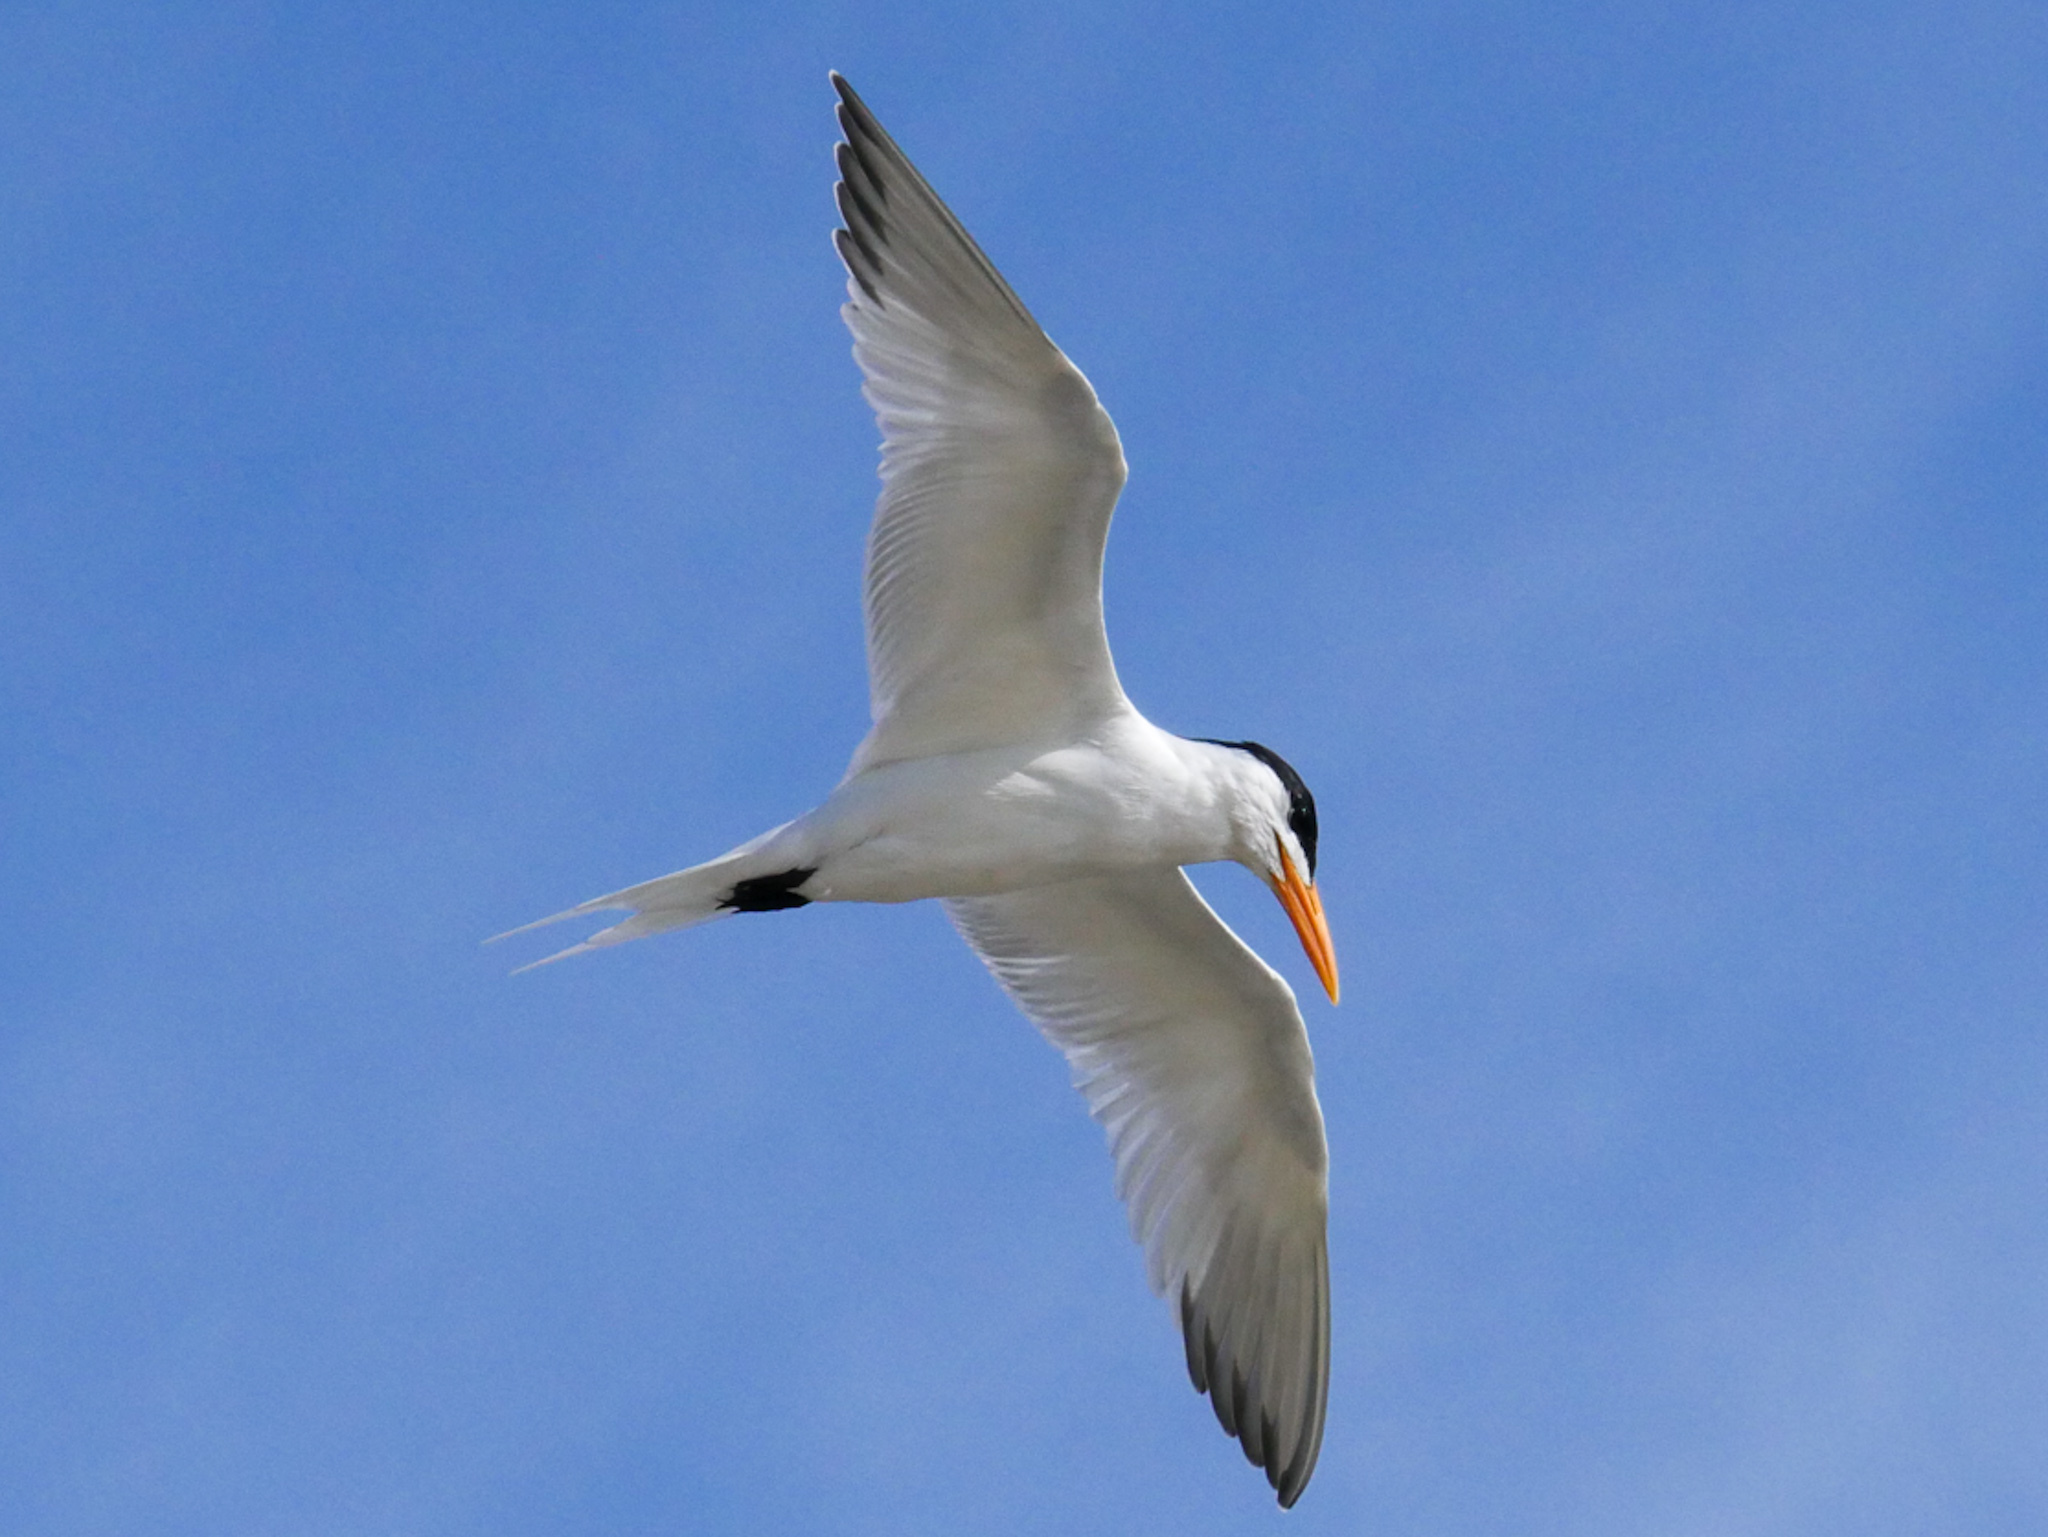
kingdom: Animalia
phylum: Chordata
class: Aves
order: Charadriiformes
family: Laridae
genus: Thalasseus
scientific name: Thalasseus maximus
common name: Royal tern
